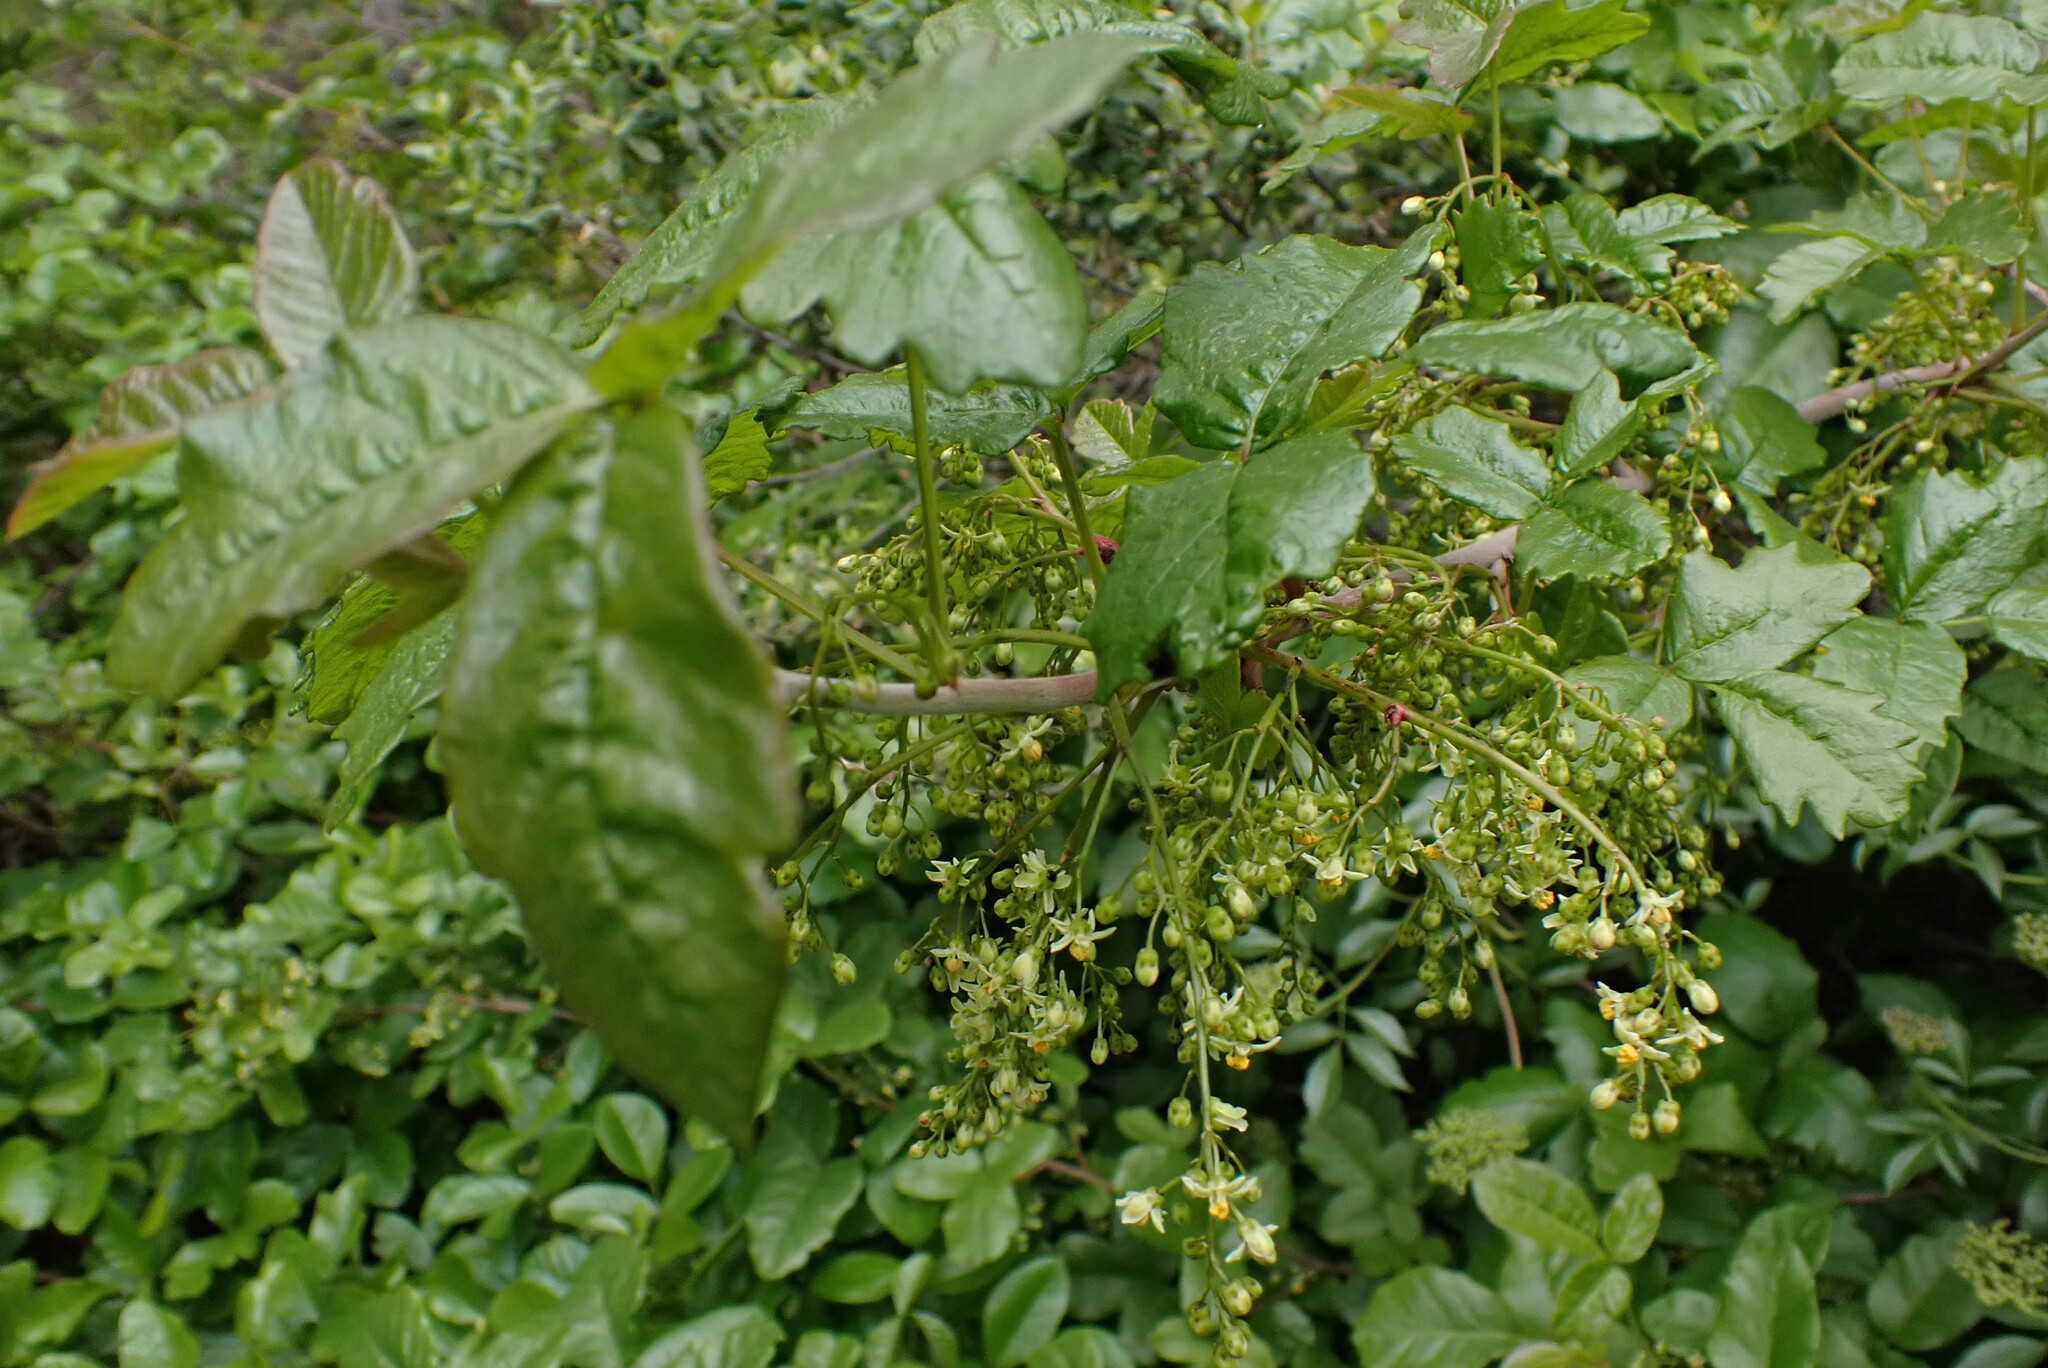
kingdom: Plantae
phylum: Tracheophyta
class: Magnoliopsida
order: Sapindales
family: Anacardiaceae
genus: Toxicodendron
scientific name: Toxicodendron diversilobum
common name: Pacific poison-oak
